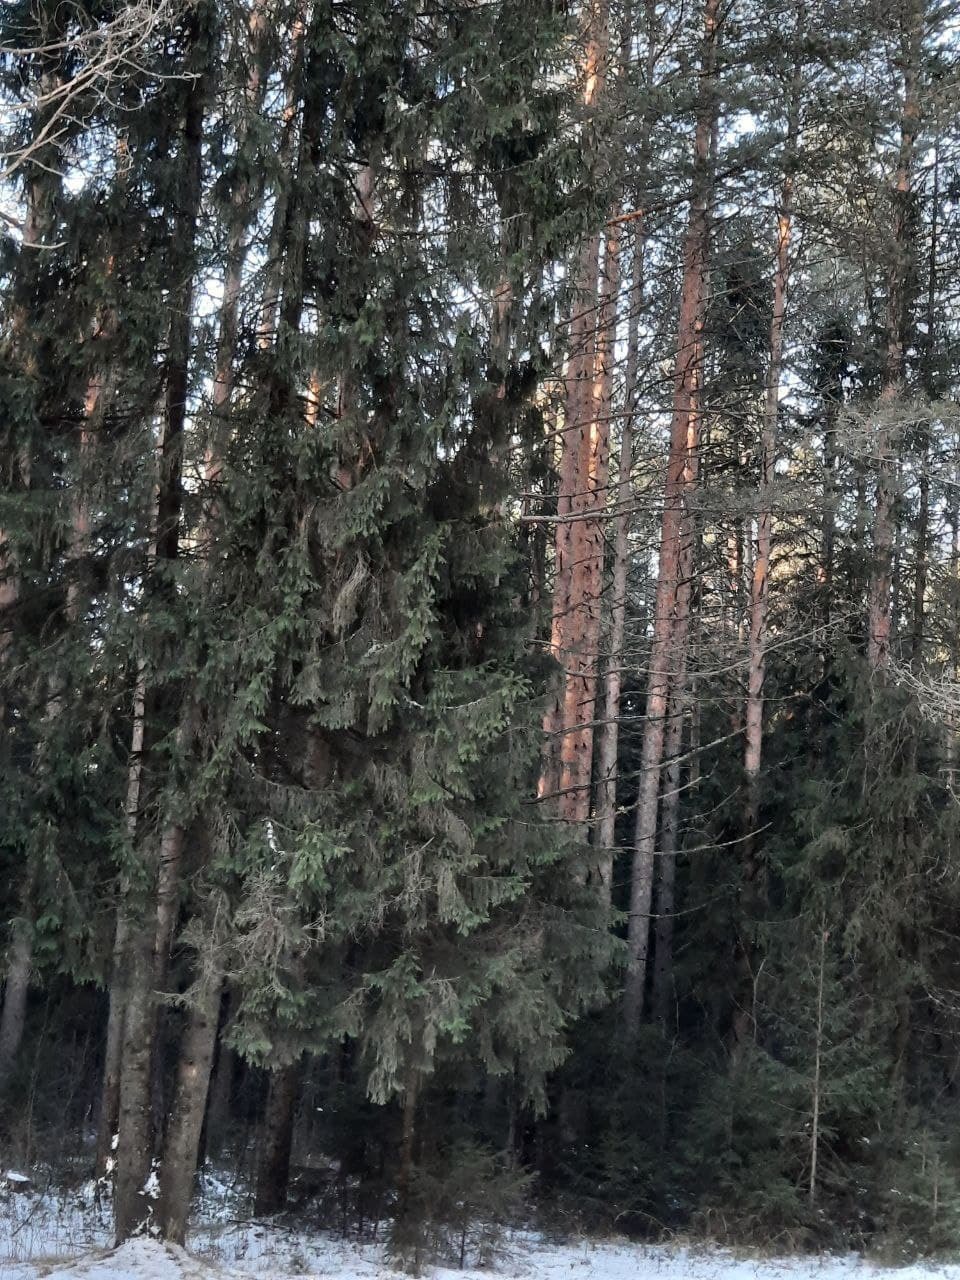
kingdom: Plantae
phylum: Tracheophyta
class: Pinopsida
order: Pinales
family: Pinaceae
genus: Picea
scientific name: Picea
